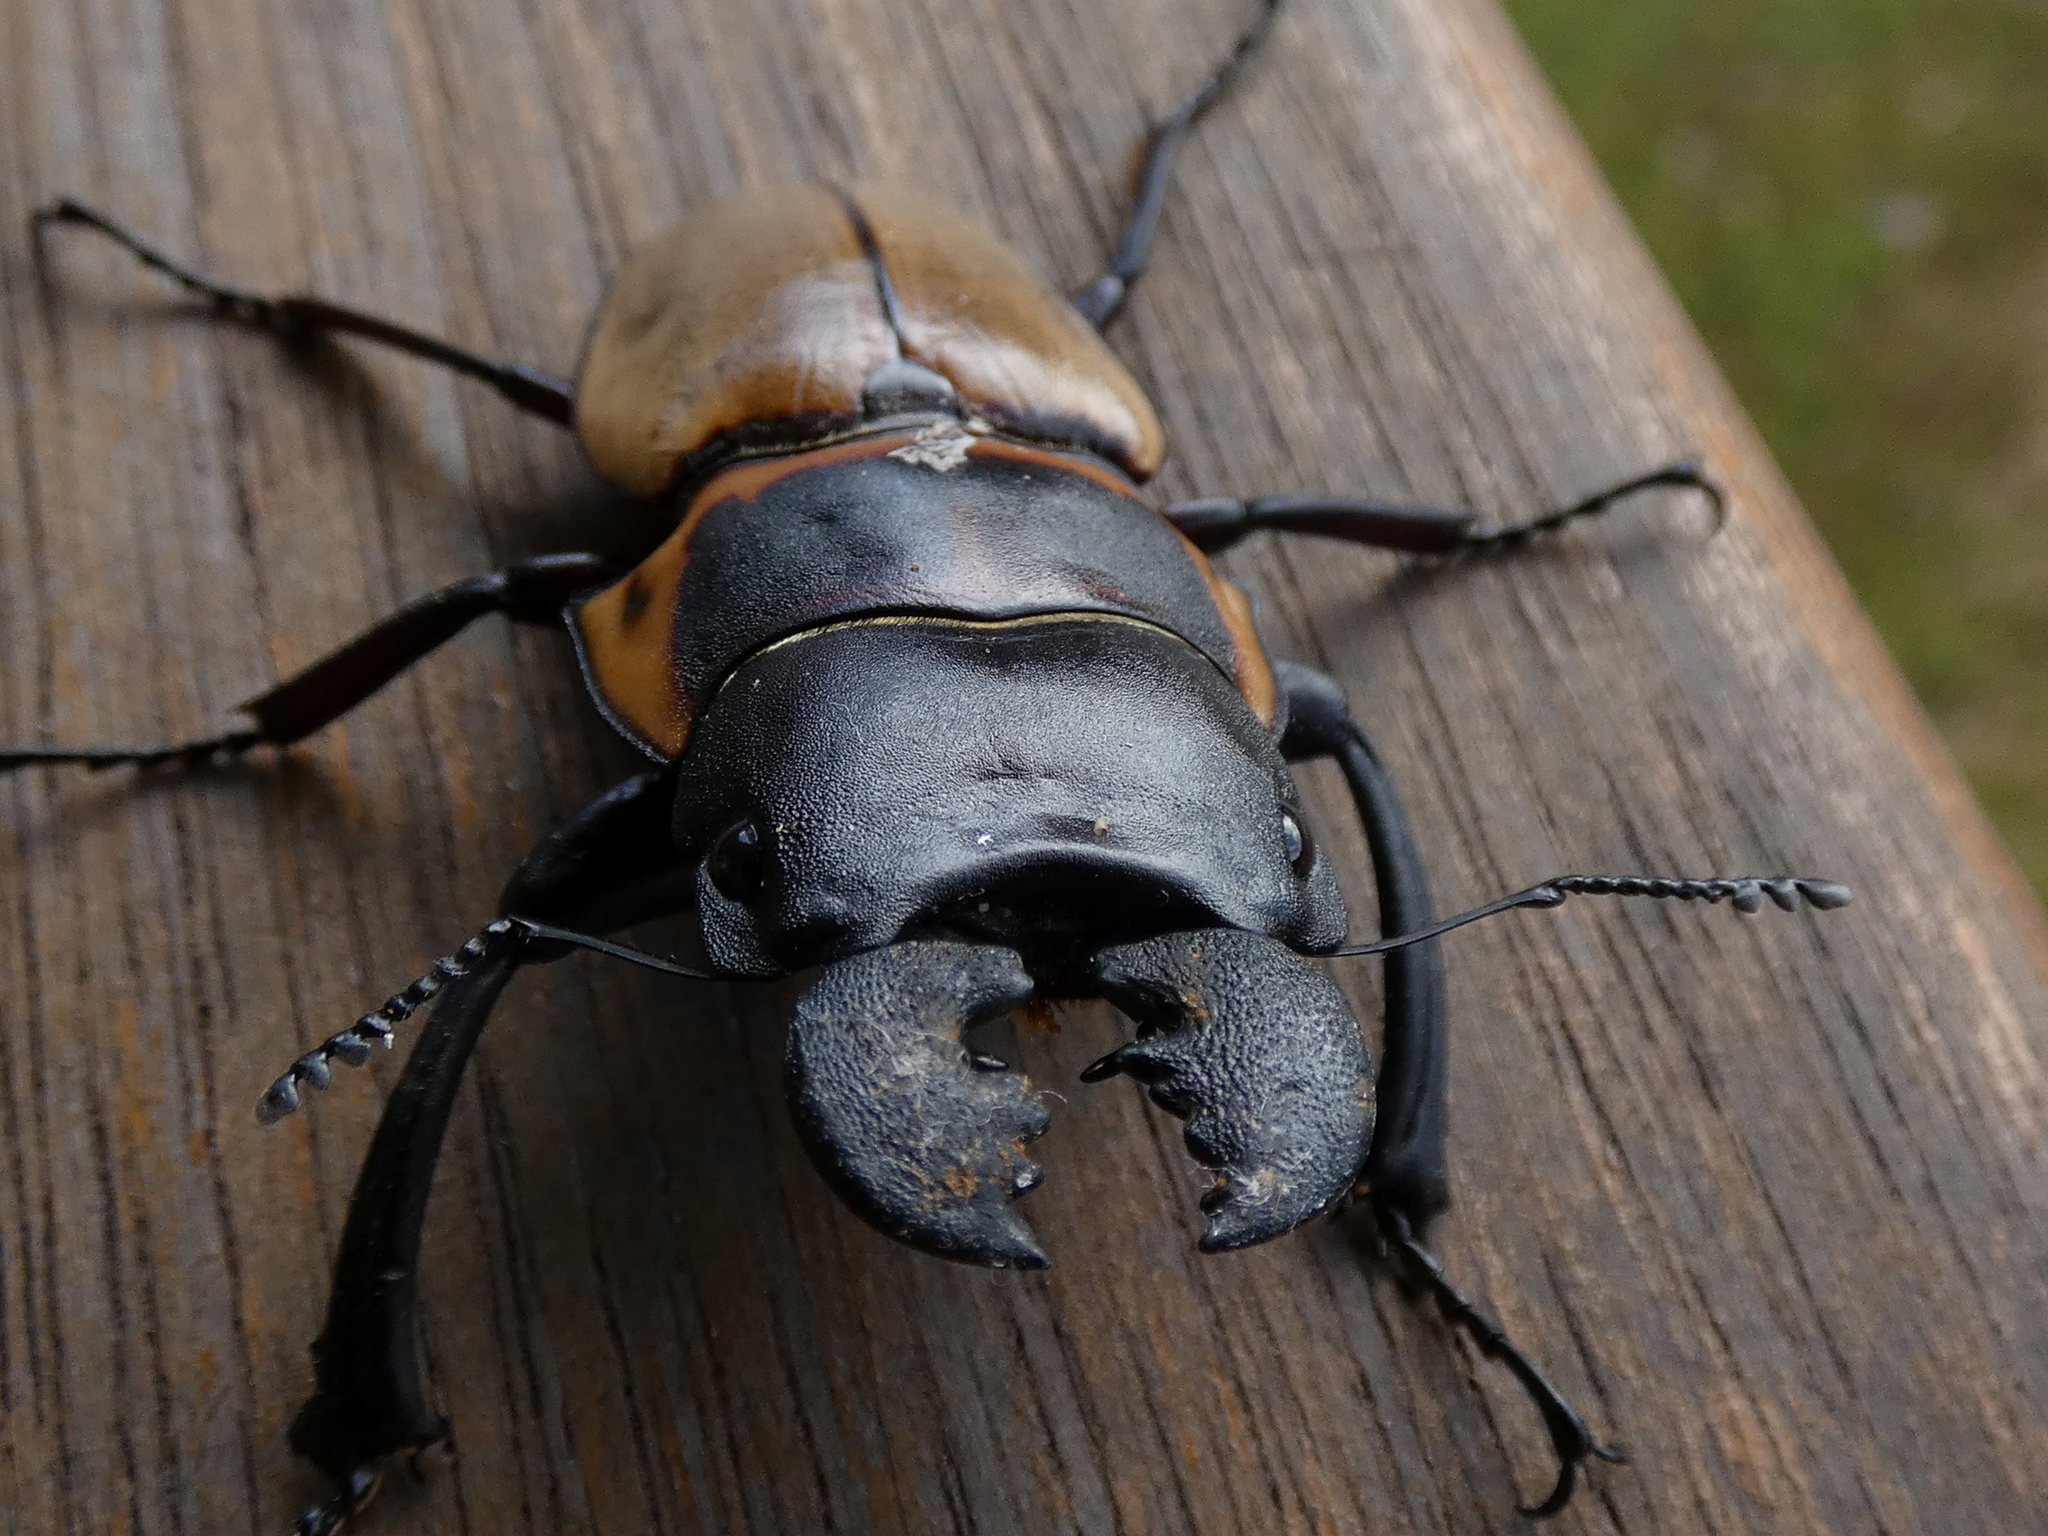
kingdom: Animalia
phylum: Arthropoda
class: Insecta
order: Coleoptera
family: Lucanidae
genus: Odontolabis
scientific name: Odontolabis brookeana
